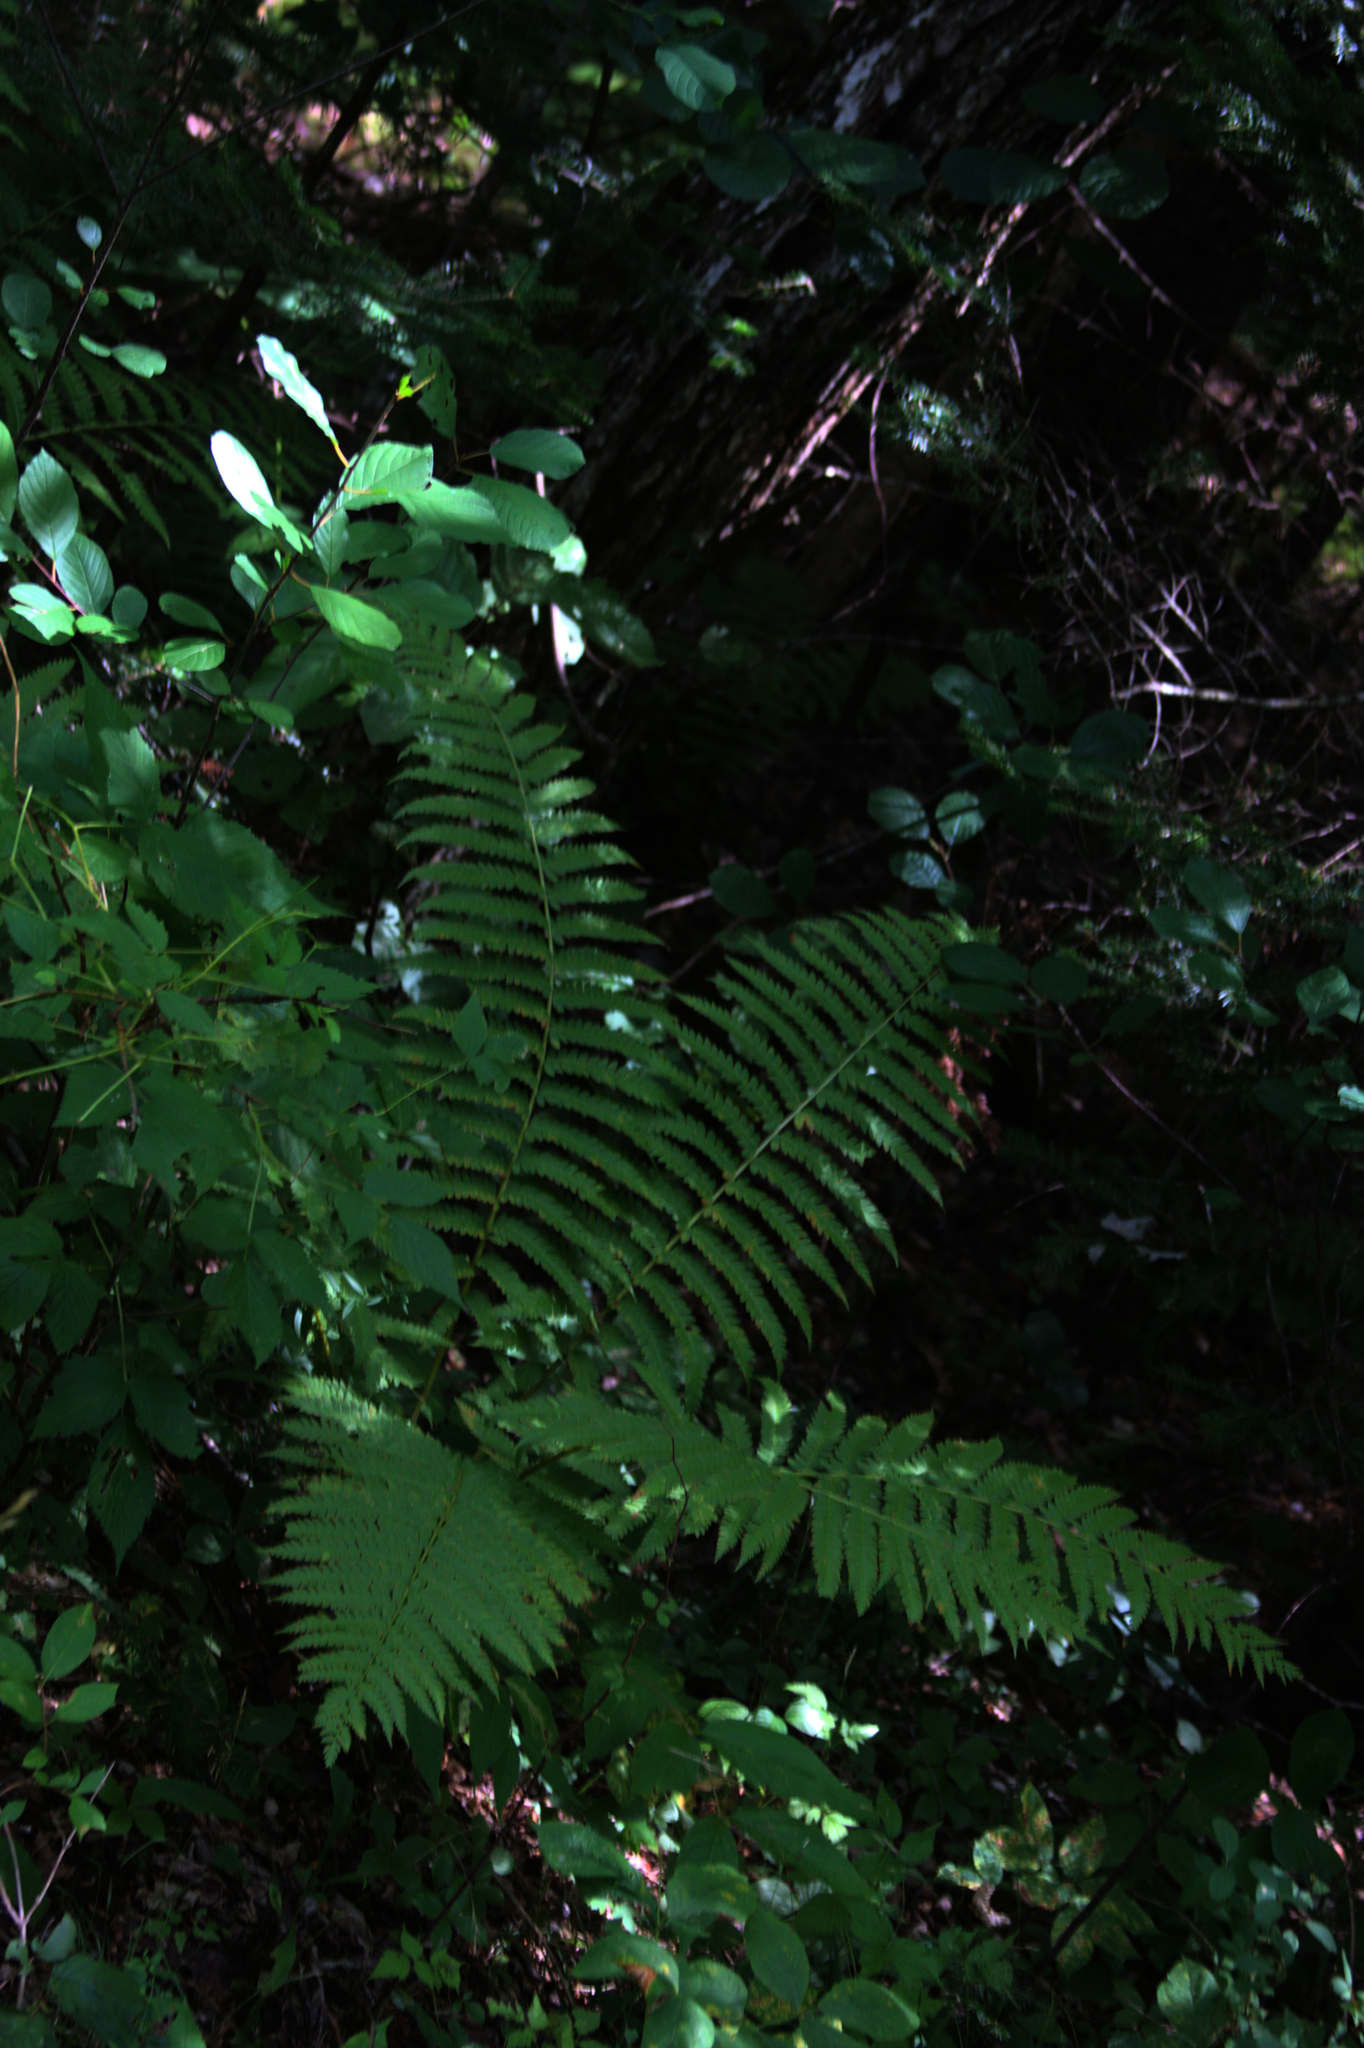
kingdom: Plantae
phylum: Tracheophyta
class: Polypodiopsida
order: Osmundales
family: Osmundaceae
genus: Osmundastrum
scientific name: Osmundastrum cinnamomeum
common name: Cinnamon fern
